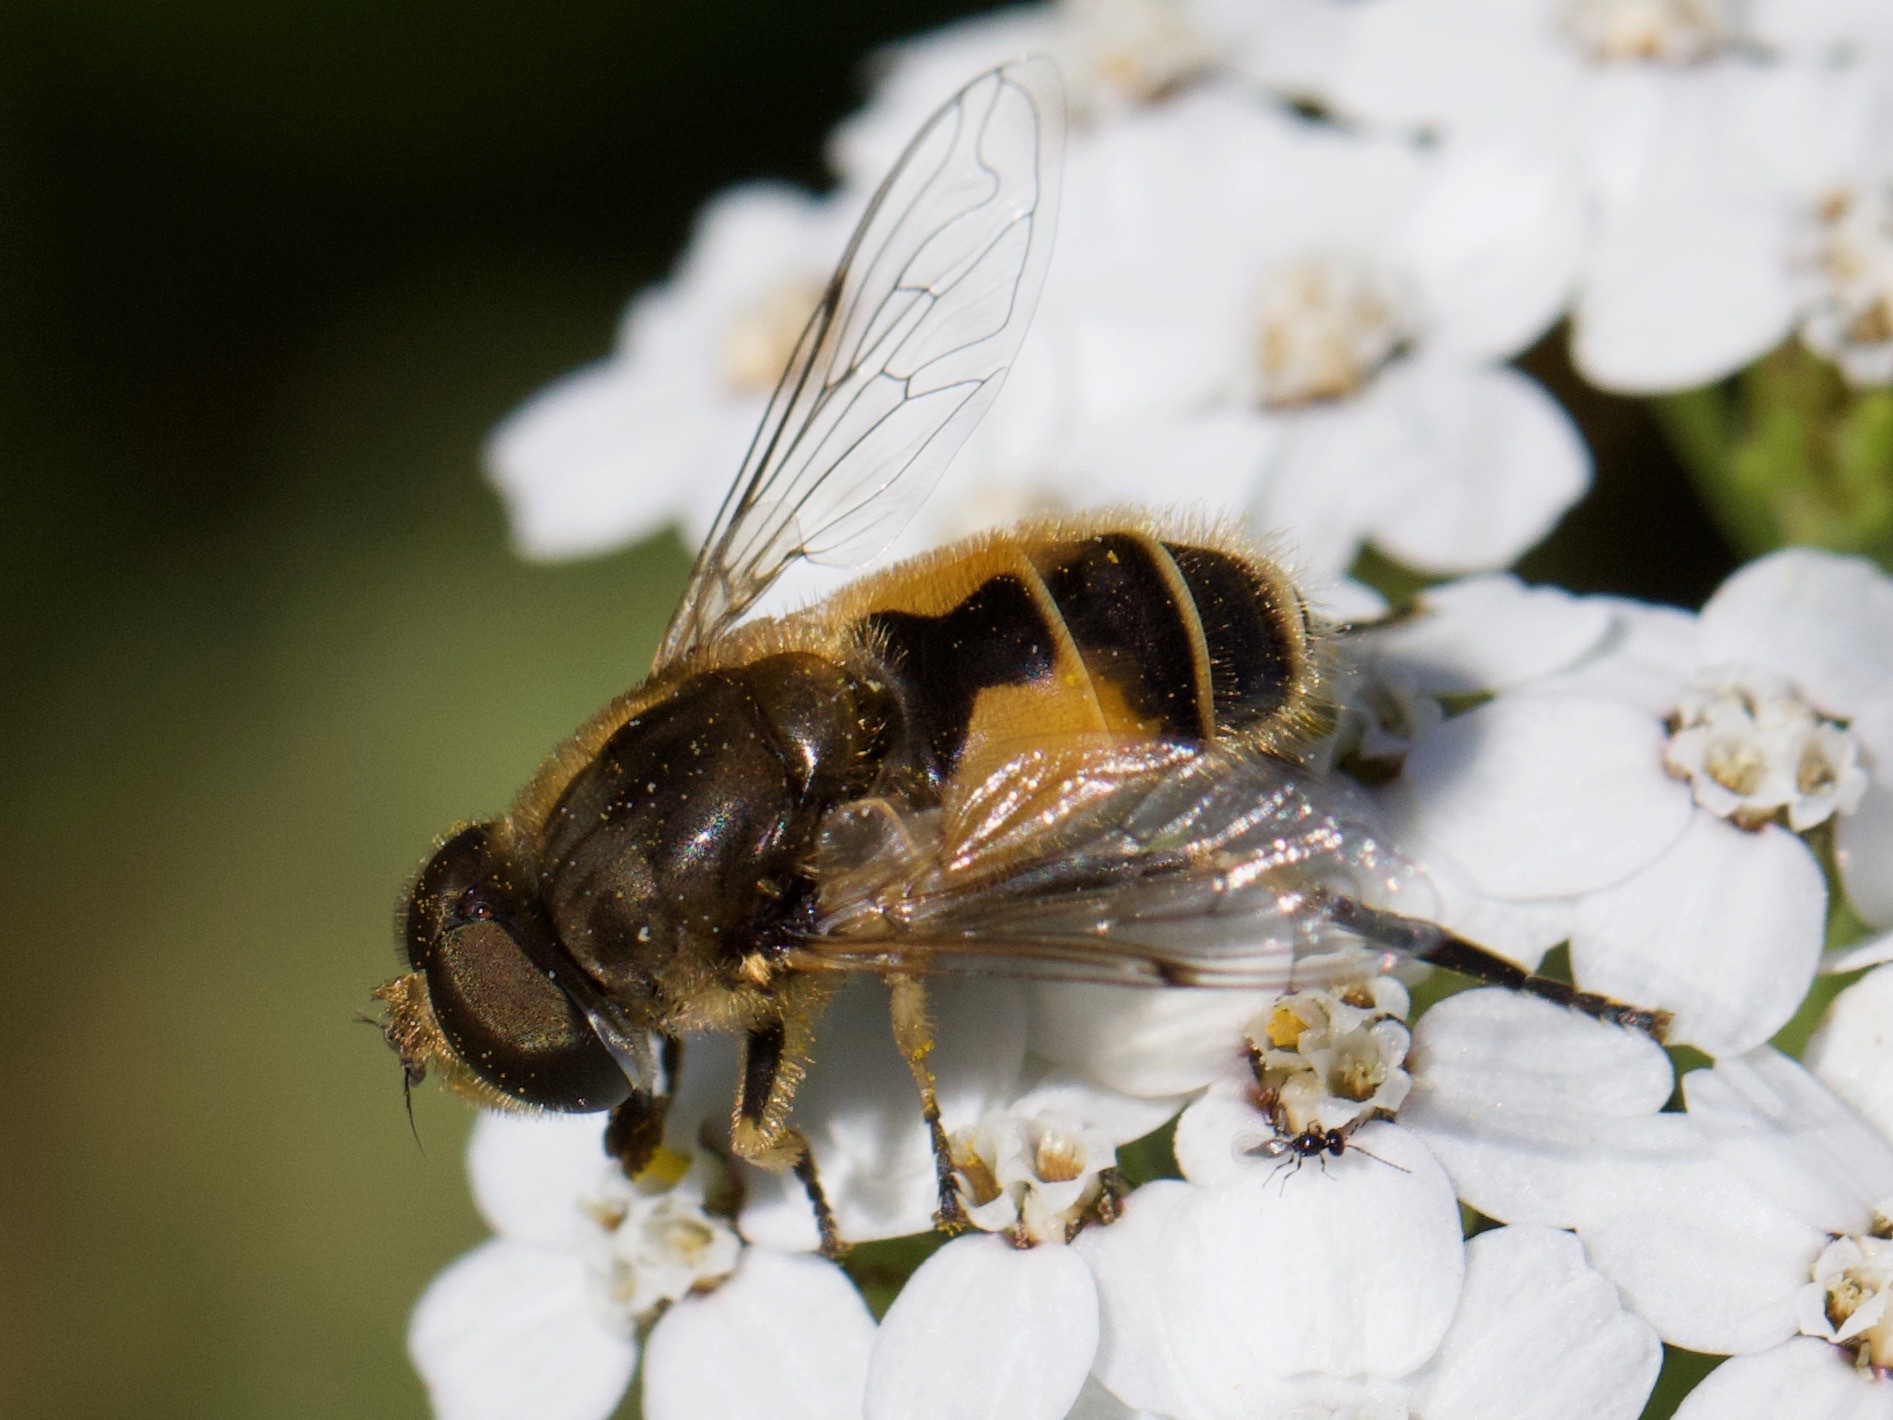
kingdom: Animalia
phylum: Arthropoda
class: Insecta
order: Diptera
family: Syrphidae
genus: Eristalis
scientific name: Eristalis arbustorum
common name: Hover fly
